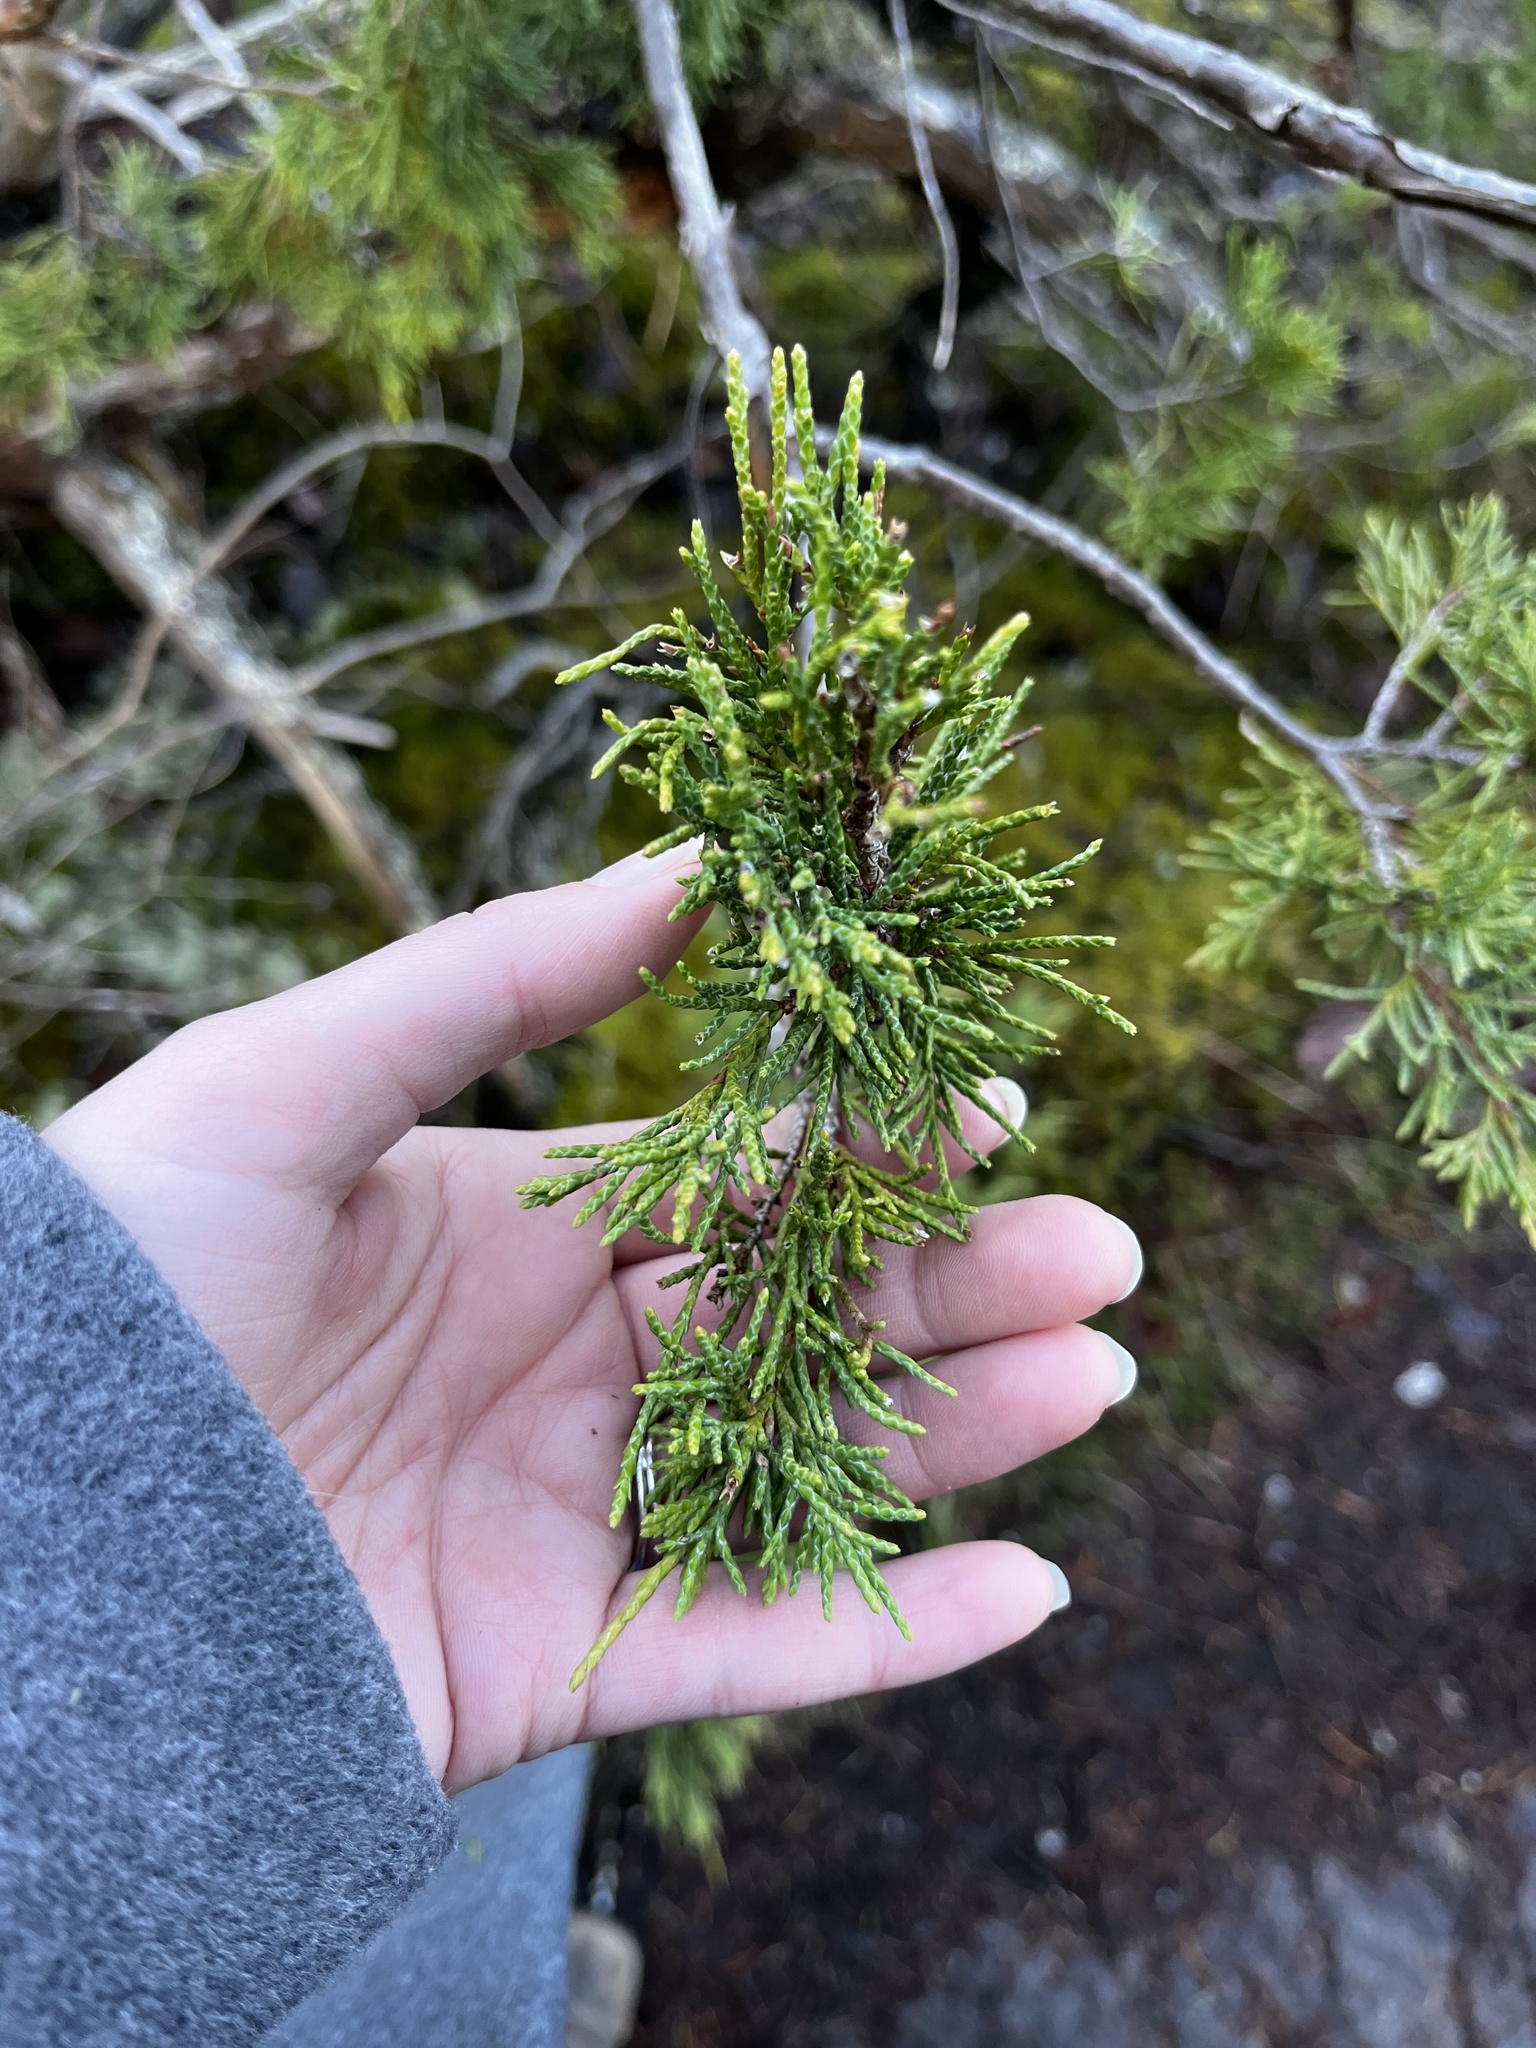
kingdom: Plantae
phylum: Tracheophyta
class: Pinopsida
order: Pinales
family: Cupressaceae
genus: Juniperus
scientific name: Juniperus scopulorum
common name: Rocky mountain juniper
